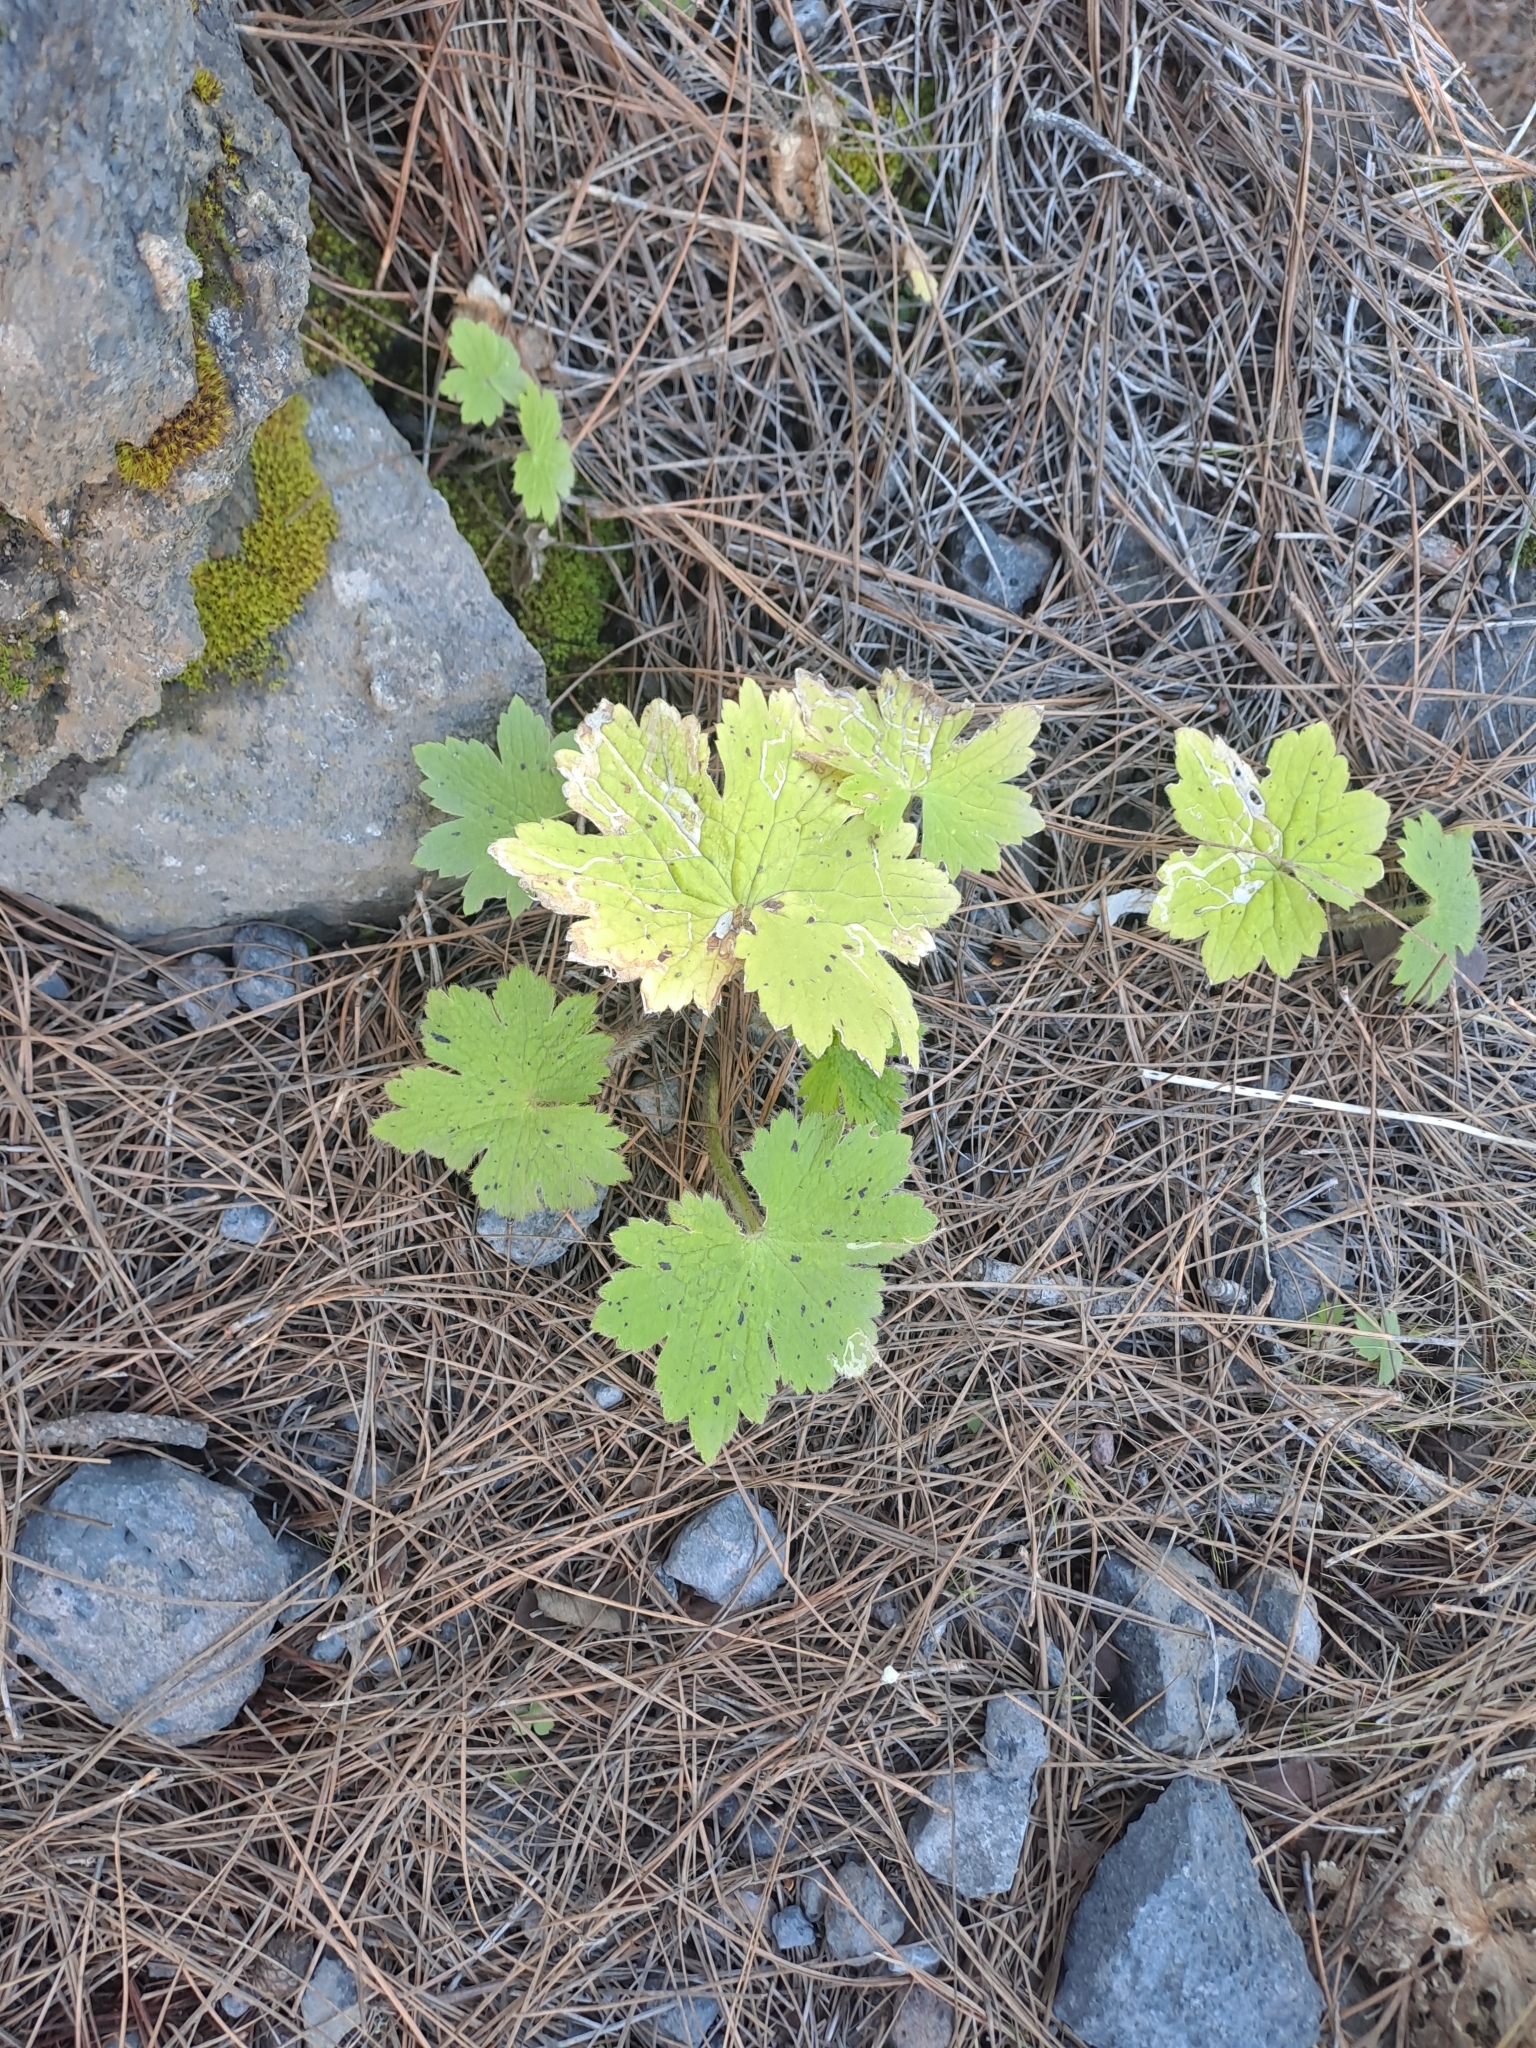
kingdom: Plantae
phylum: Tracheophyta
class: Magnoliopsida
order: Ranunculales
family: Ranunculaceae
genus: Ranunculus
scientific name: Ranunculus cortusifolius
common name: Azores buttercup
